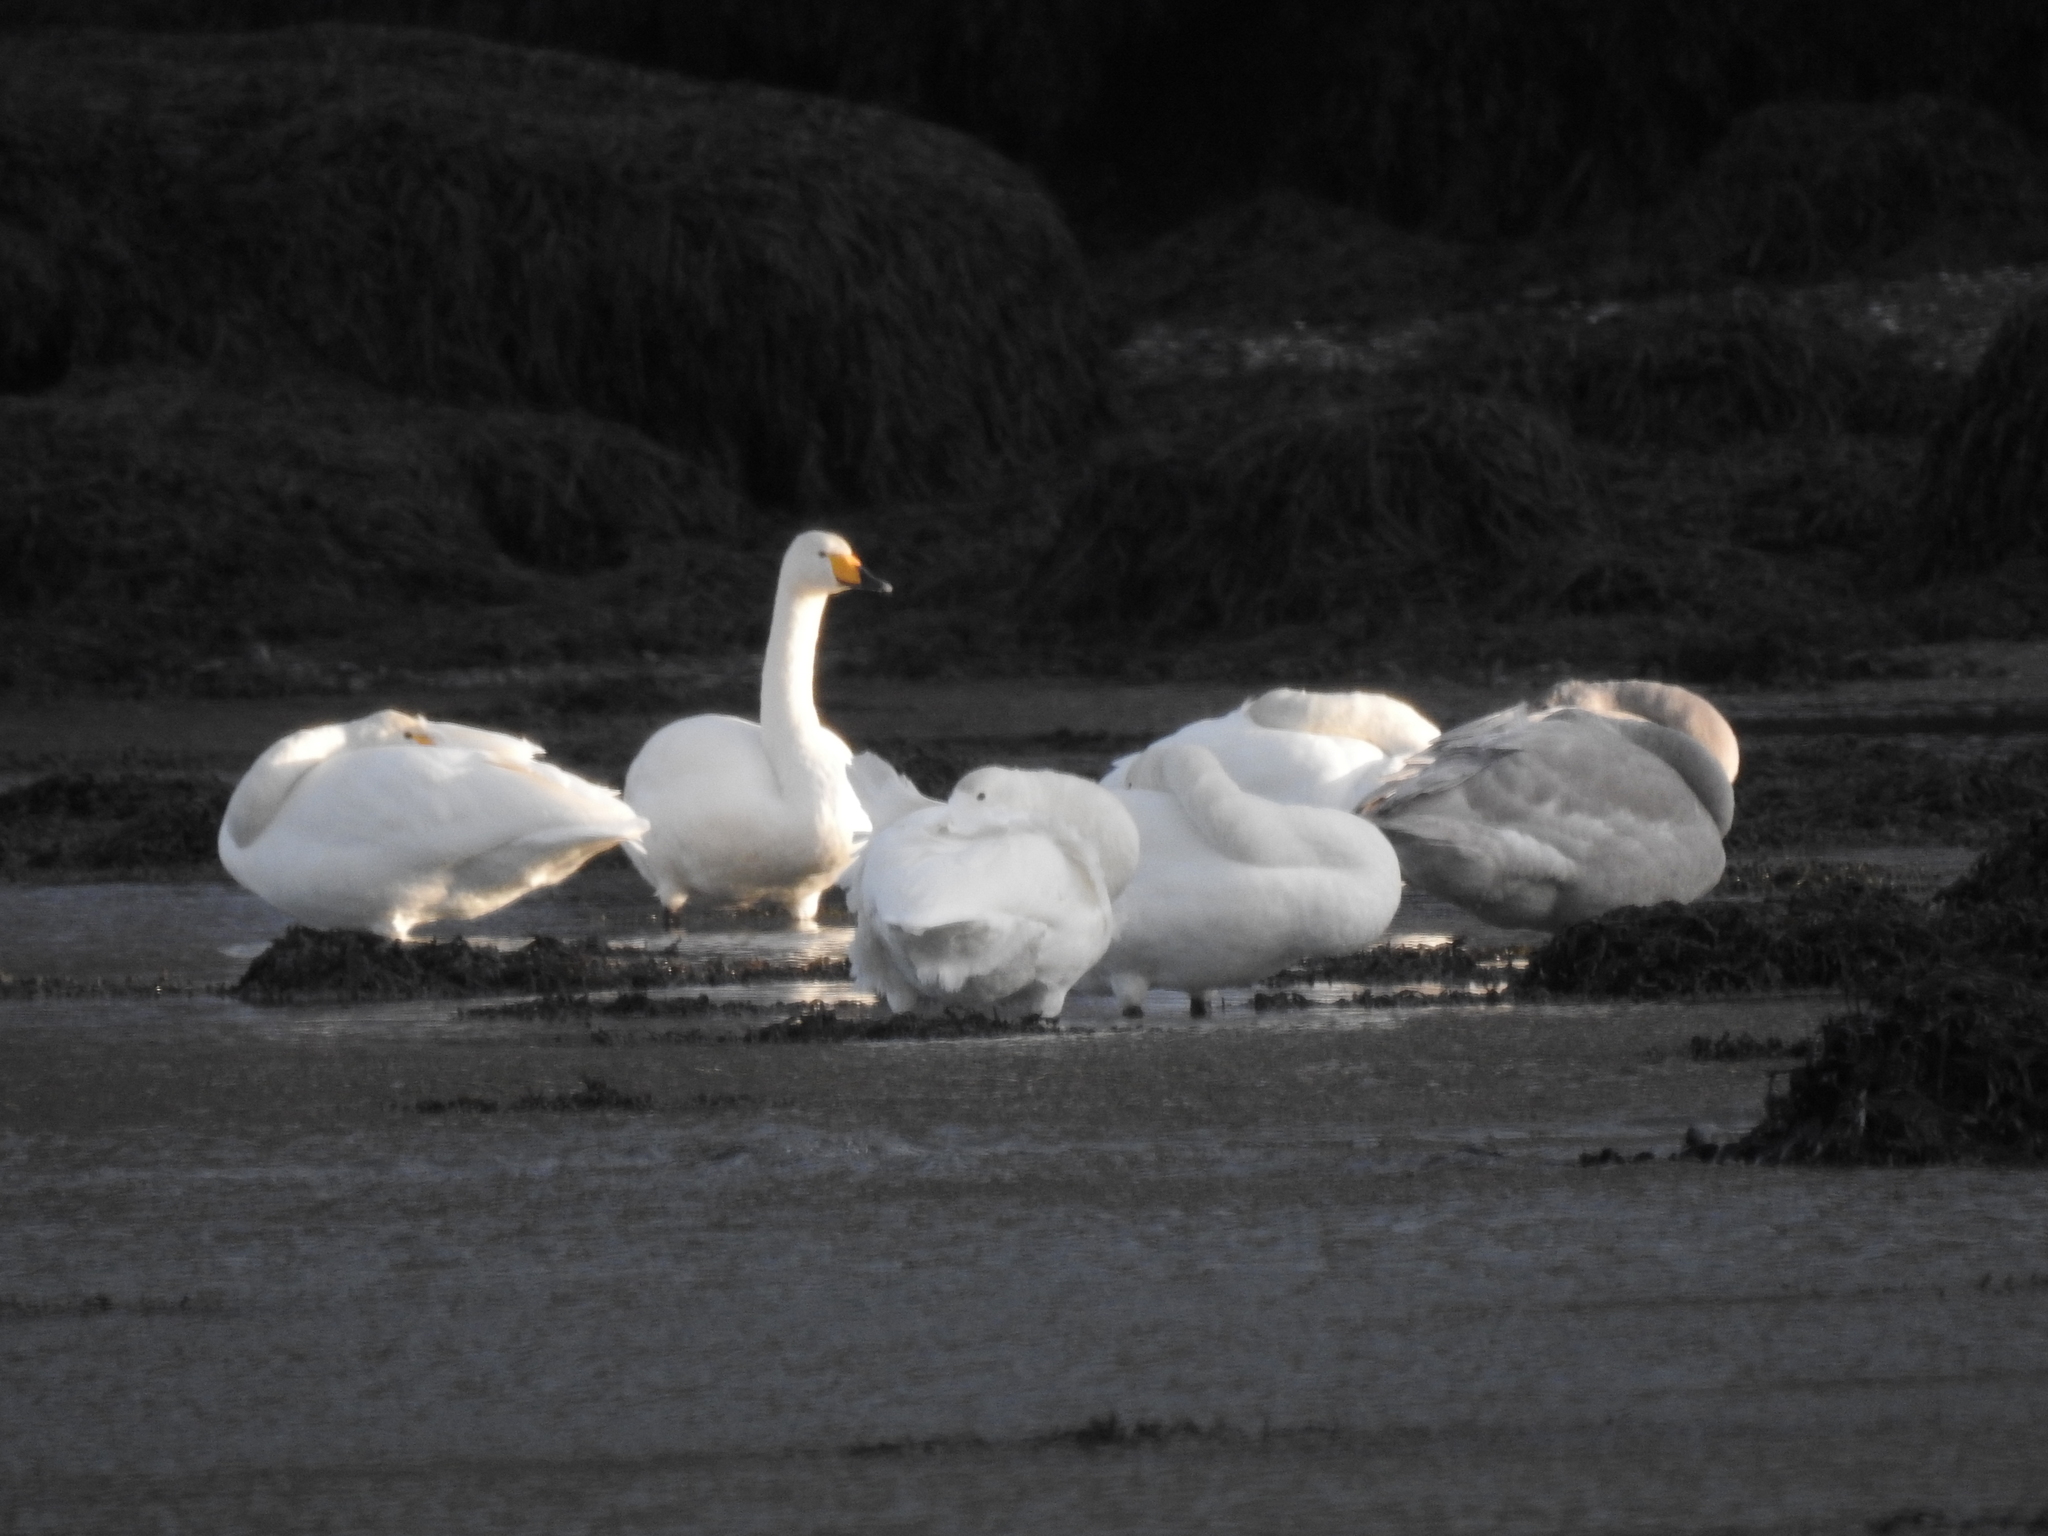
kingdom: Animalia
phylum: Chordata
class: Aves
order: Anseriformes
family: Anatidae
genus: Cygnus
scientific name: Cygnus cygnus
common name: Whooper swan
